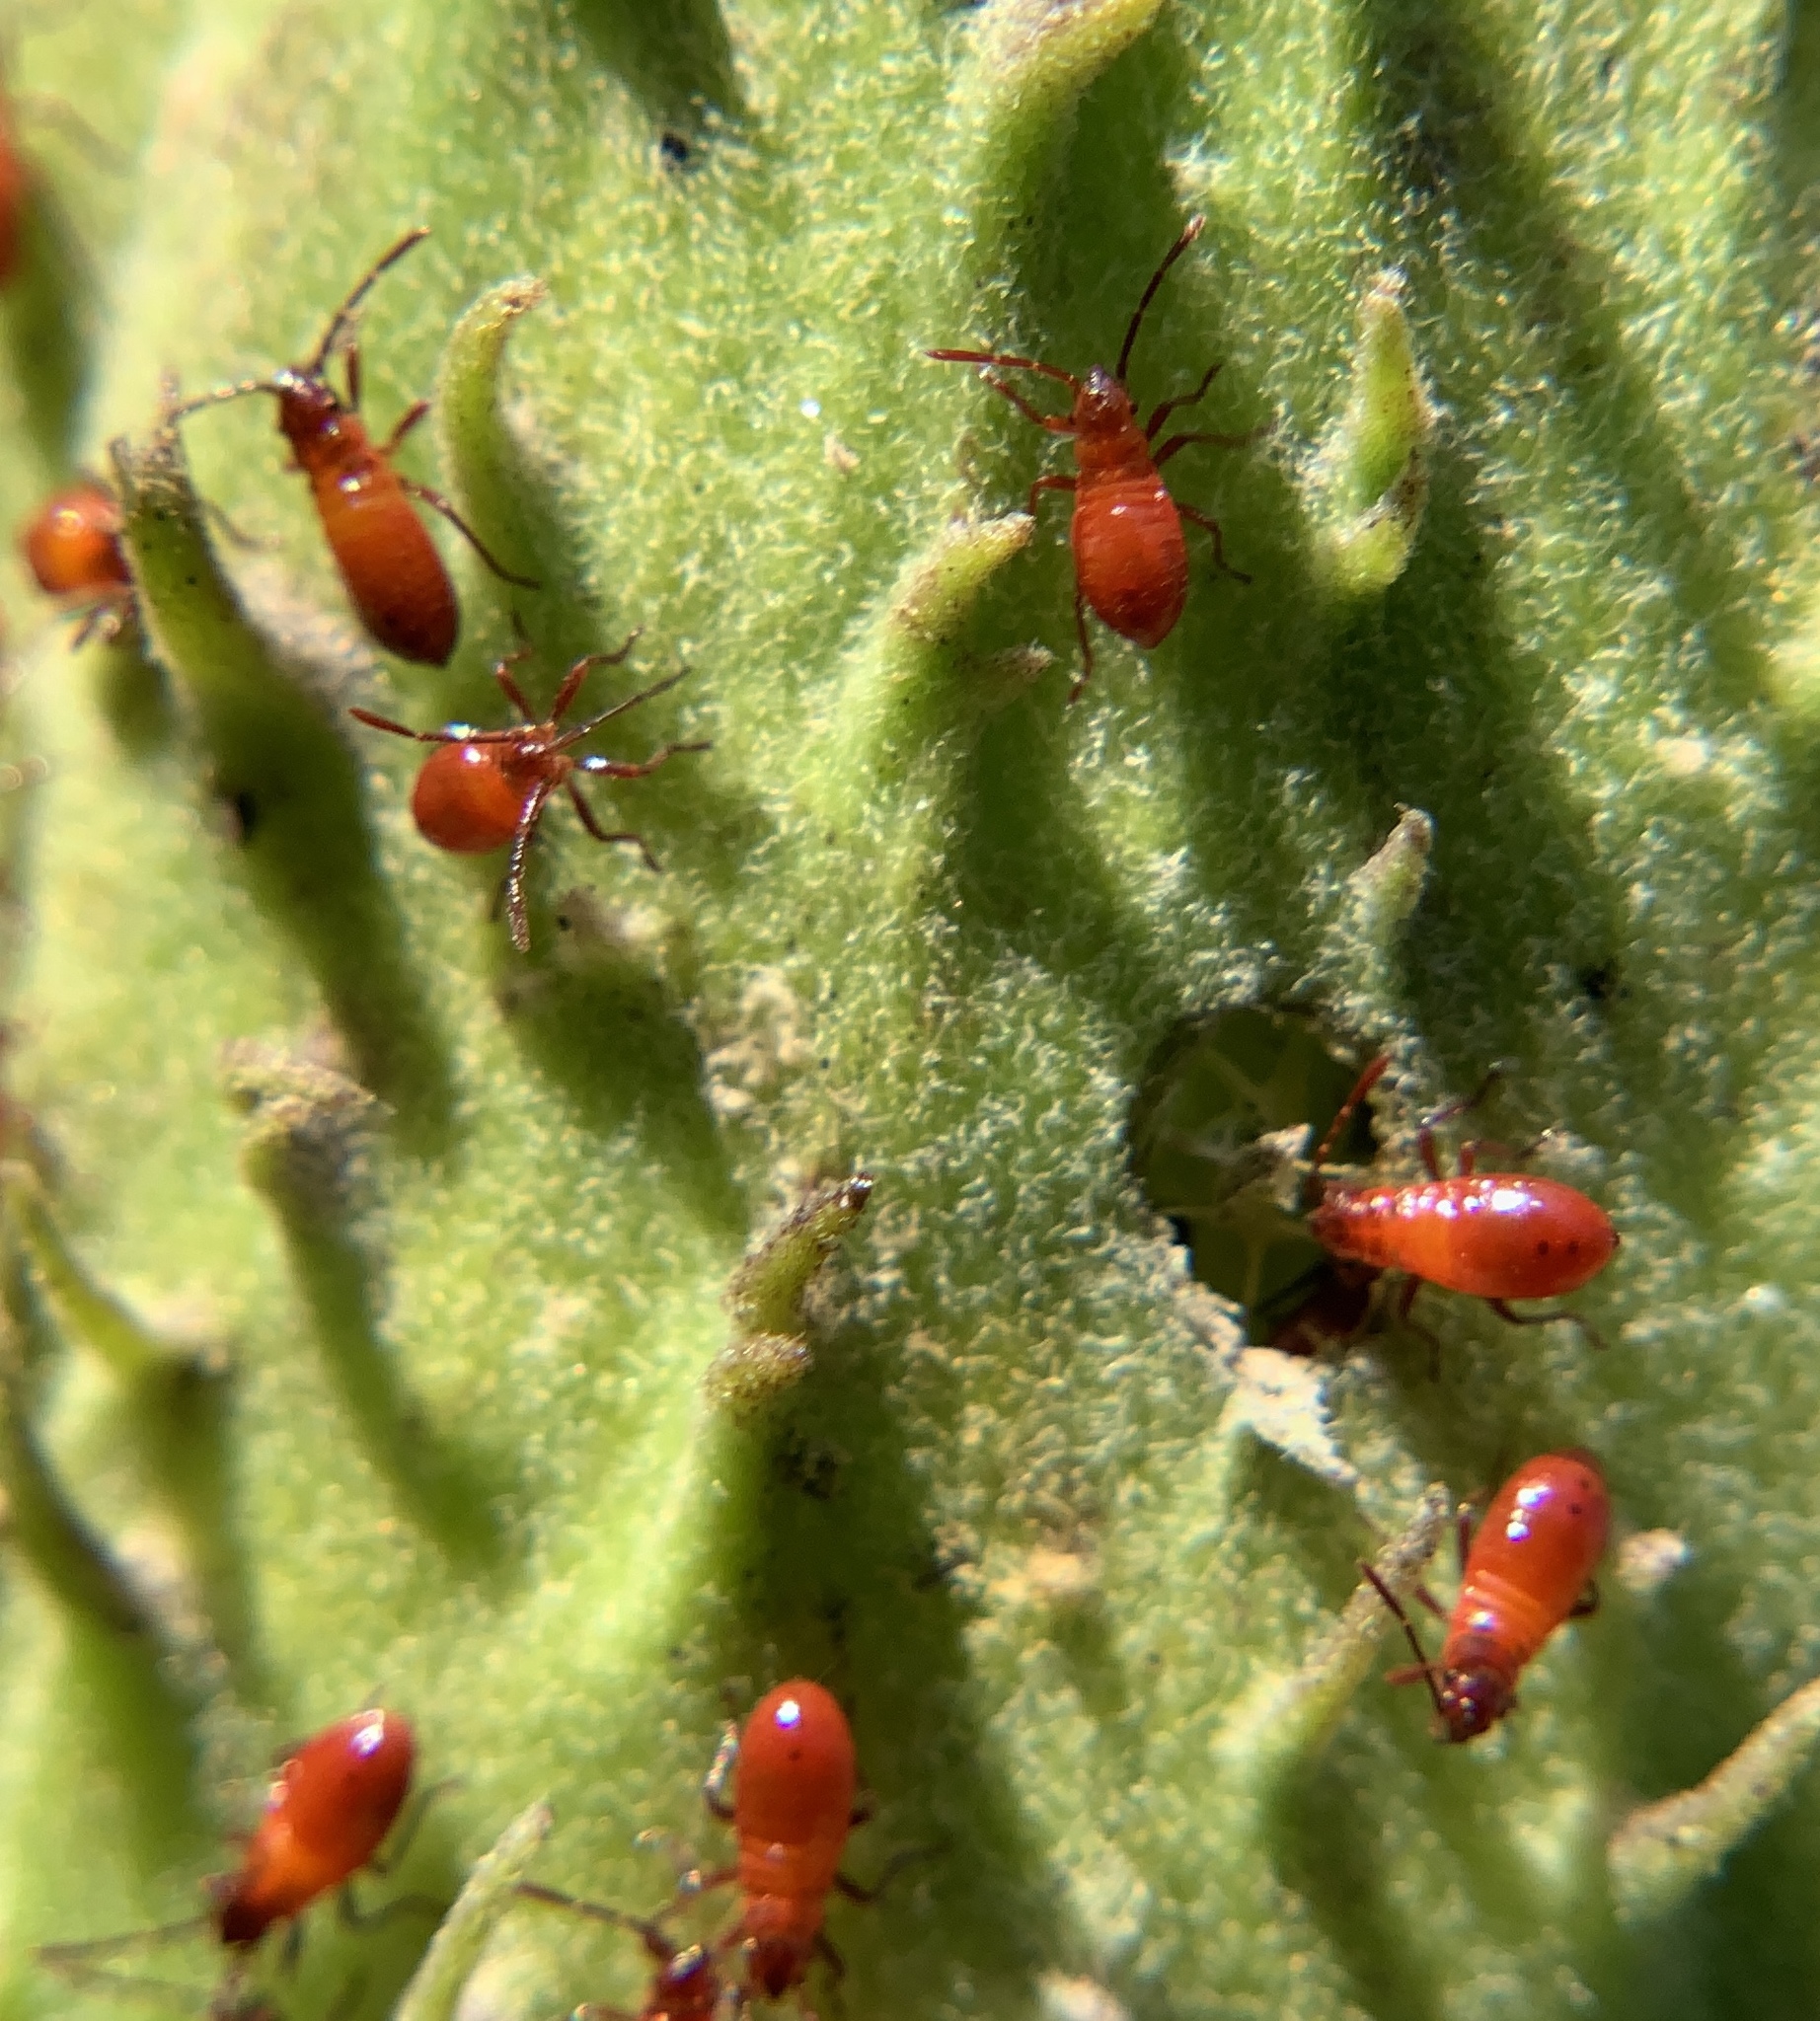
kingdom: Animalia
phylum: Arthropoda
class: Insecta
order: Hemiptera
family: Lygaeidae
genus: Oncopeltus
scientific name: Oncopeltus fasciatus
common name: Large milkweed bug
